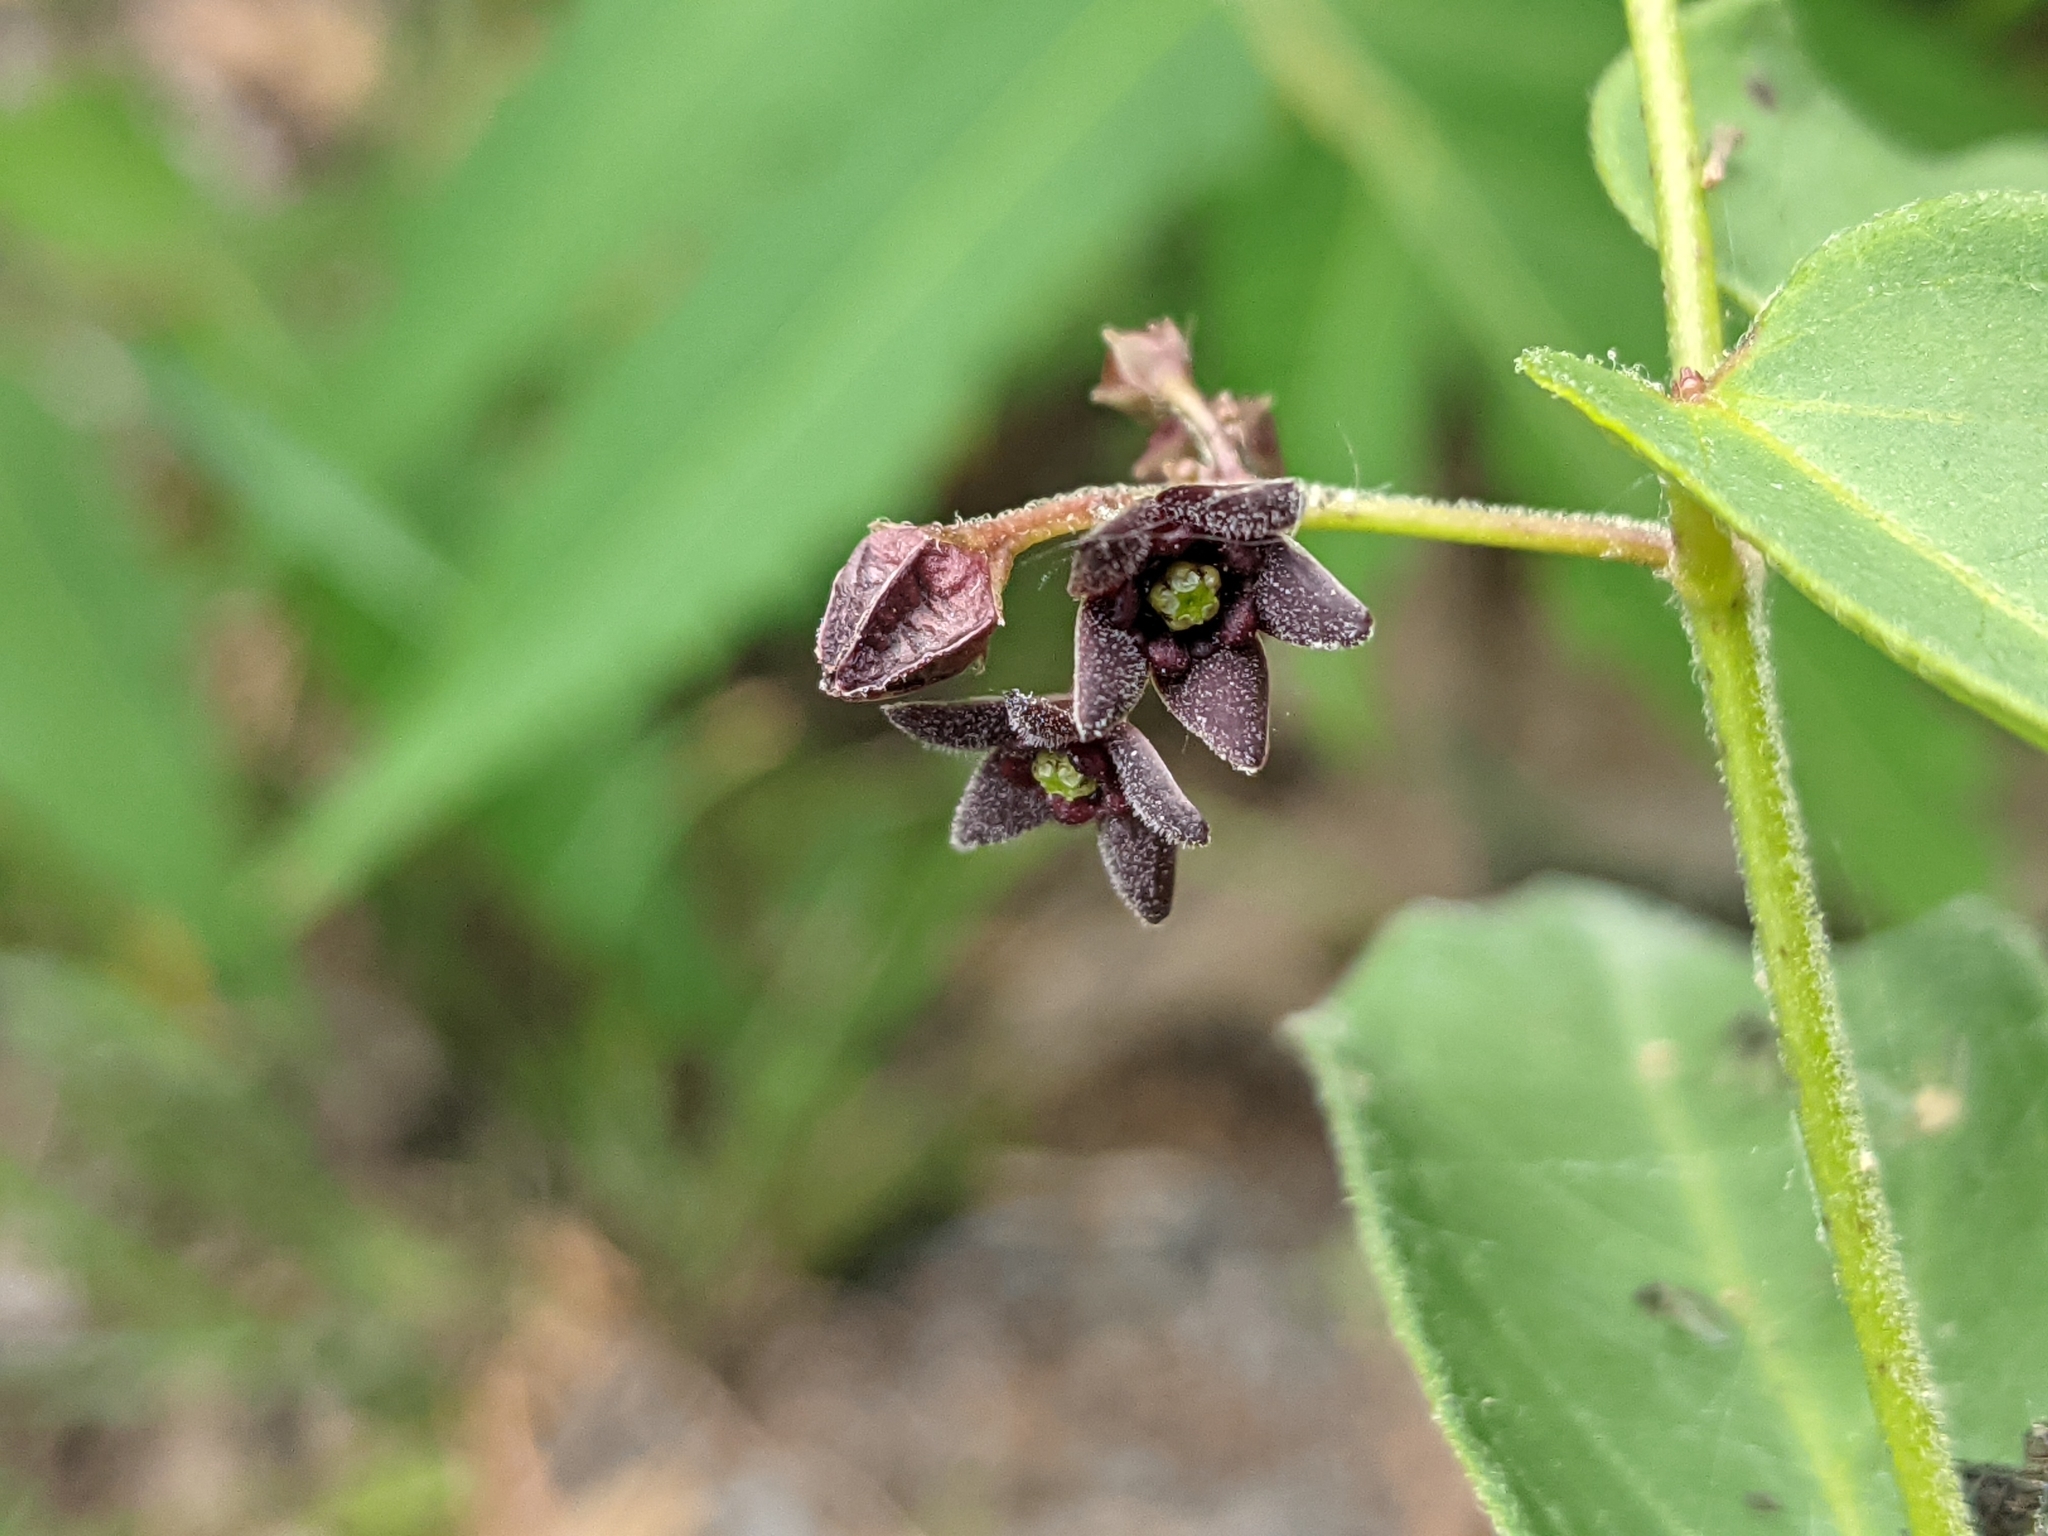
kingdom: Plantae
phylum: Tracheophyta
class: Magnoliopsida
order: Gentianales
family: Apocynaceae
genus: Vincetoxicum
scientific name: Vincetoxicum nigrum
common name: Black swallow-wort
